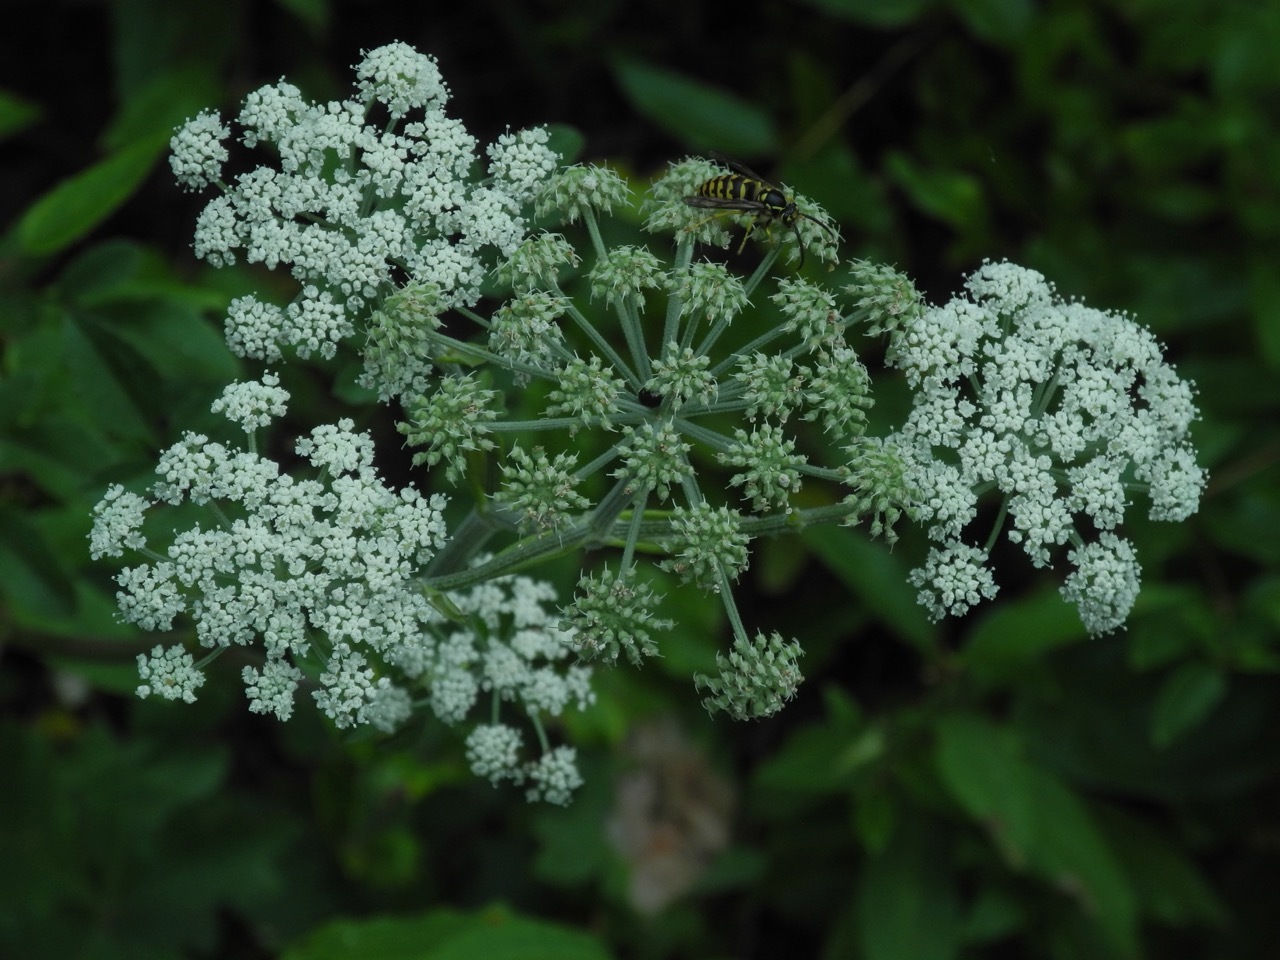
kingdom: Plantae
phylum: Tracheophyta
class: Magnoliopsida
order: Apiales
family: Apiaceae
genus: Cicuta
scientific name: Cicuta maculata
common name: Spotted cowbane
